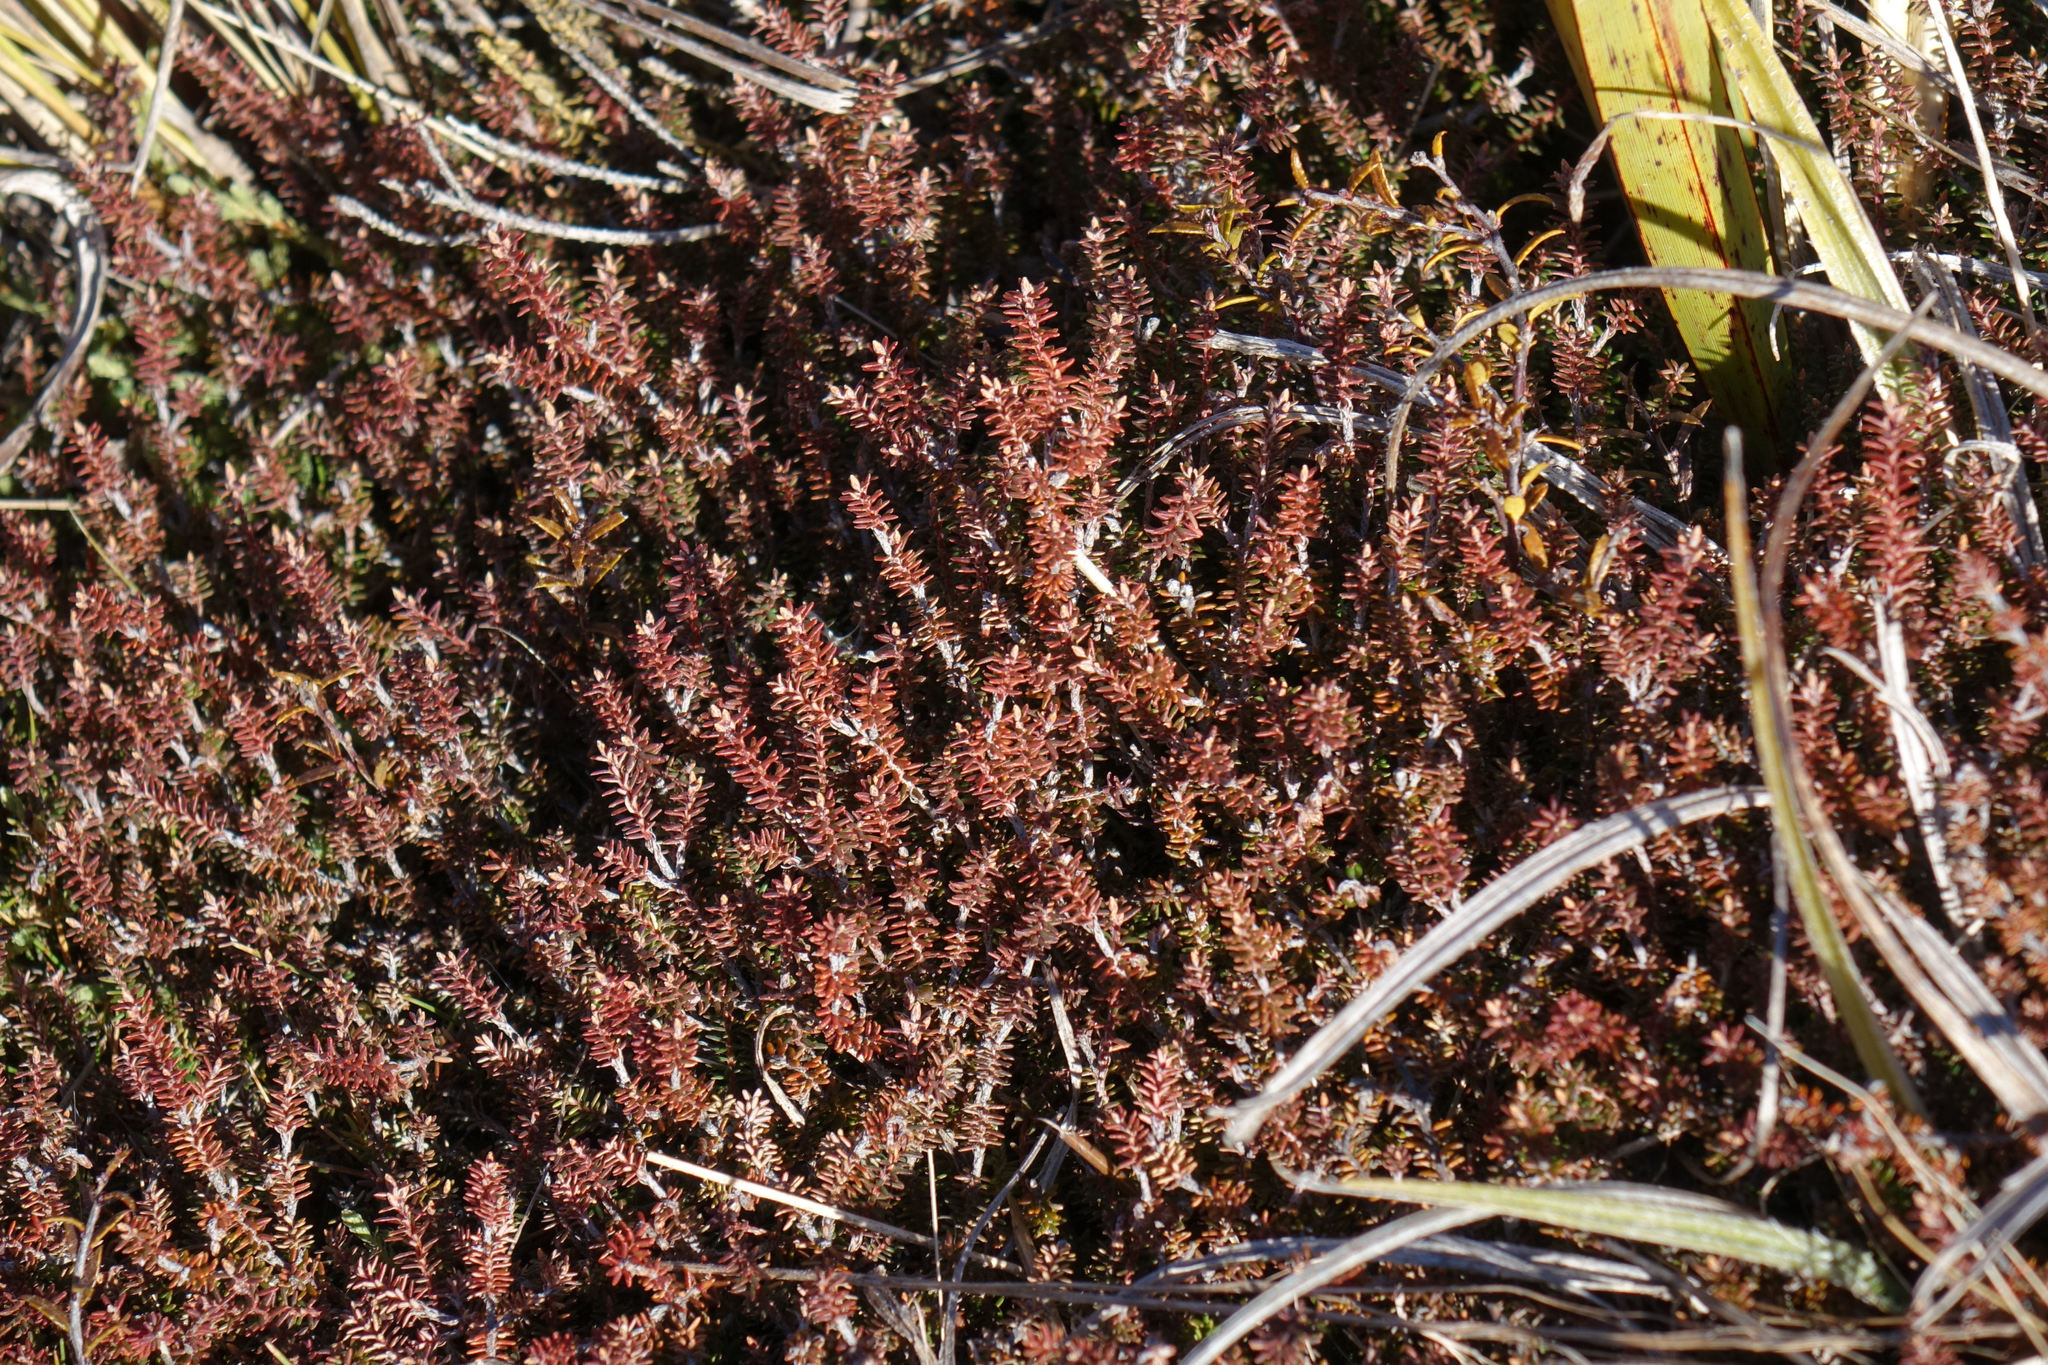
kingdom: Plantae
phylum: Tracheophyta
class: Magnoliopsida
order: Ericales
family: Ericaceae
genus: Androstoma
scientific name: Androstoma empetrifolia
